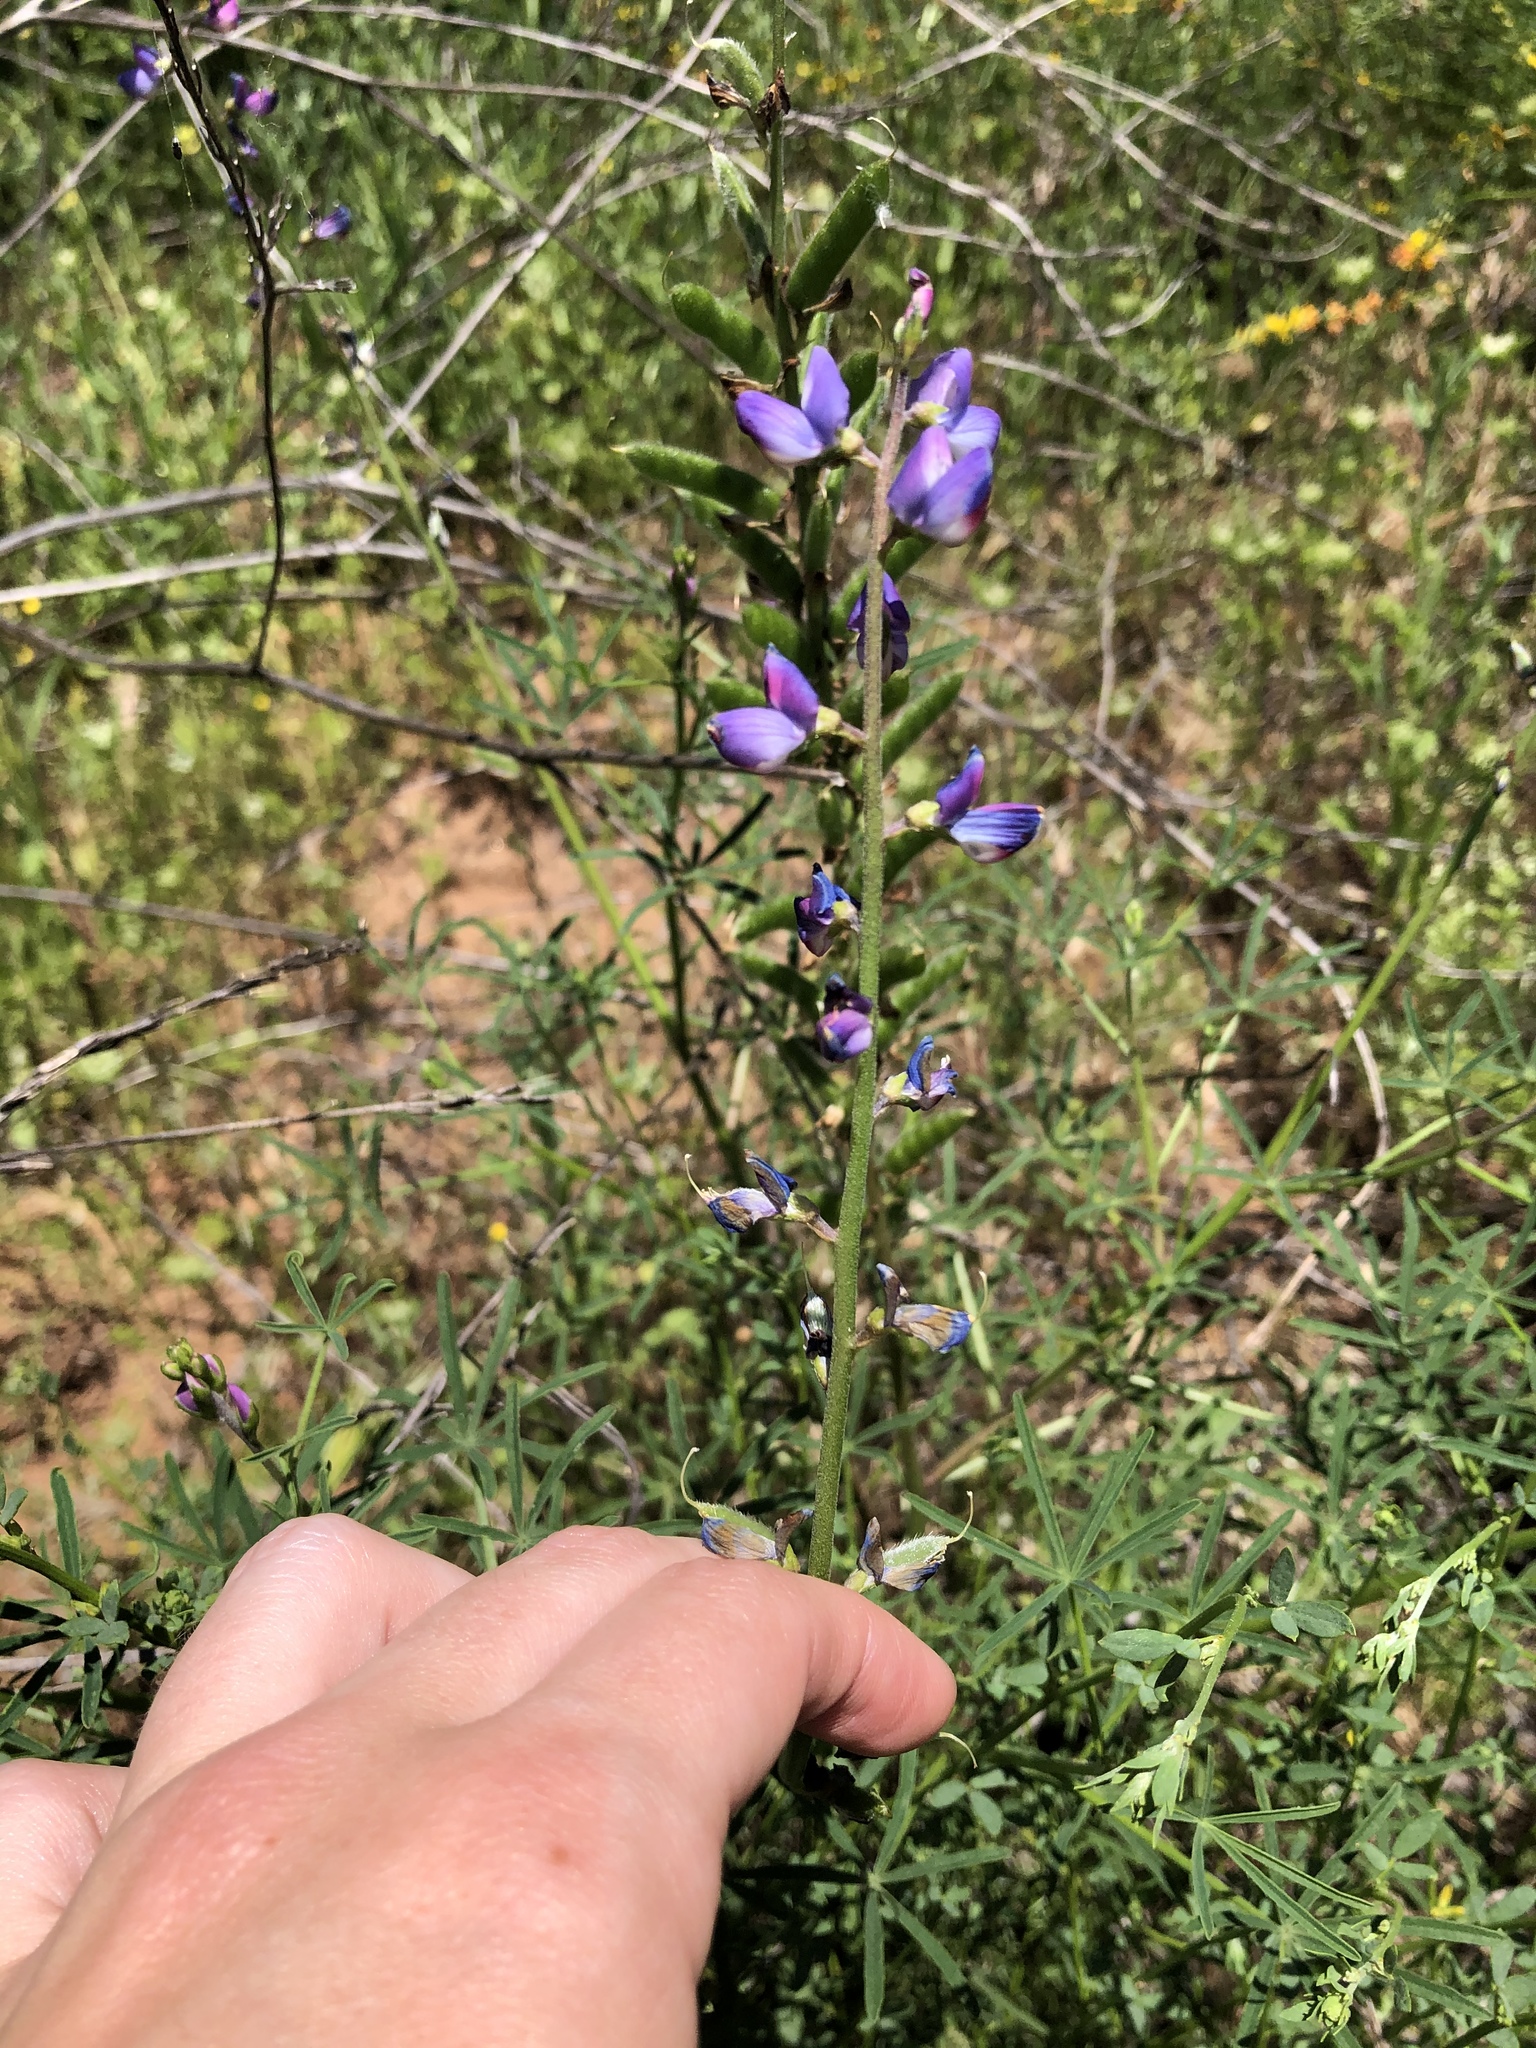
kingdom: Plantae
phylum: Tracheophyta
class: Magnoliopsida
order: Fabales
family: Fabaceae
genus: Lupinus
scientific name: Lupinus truncatus
